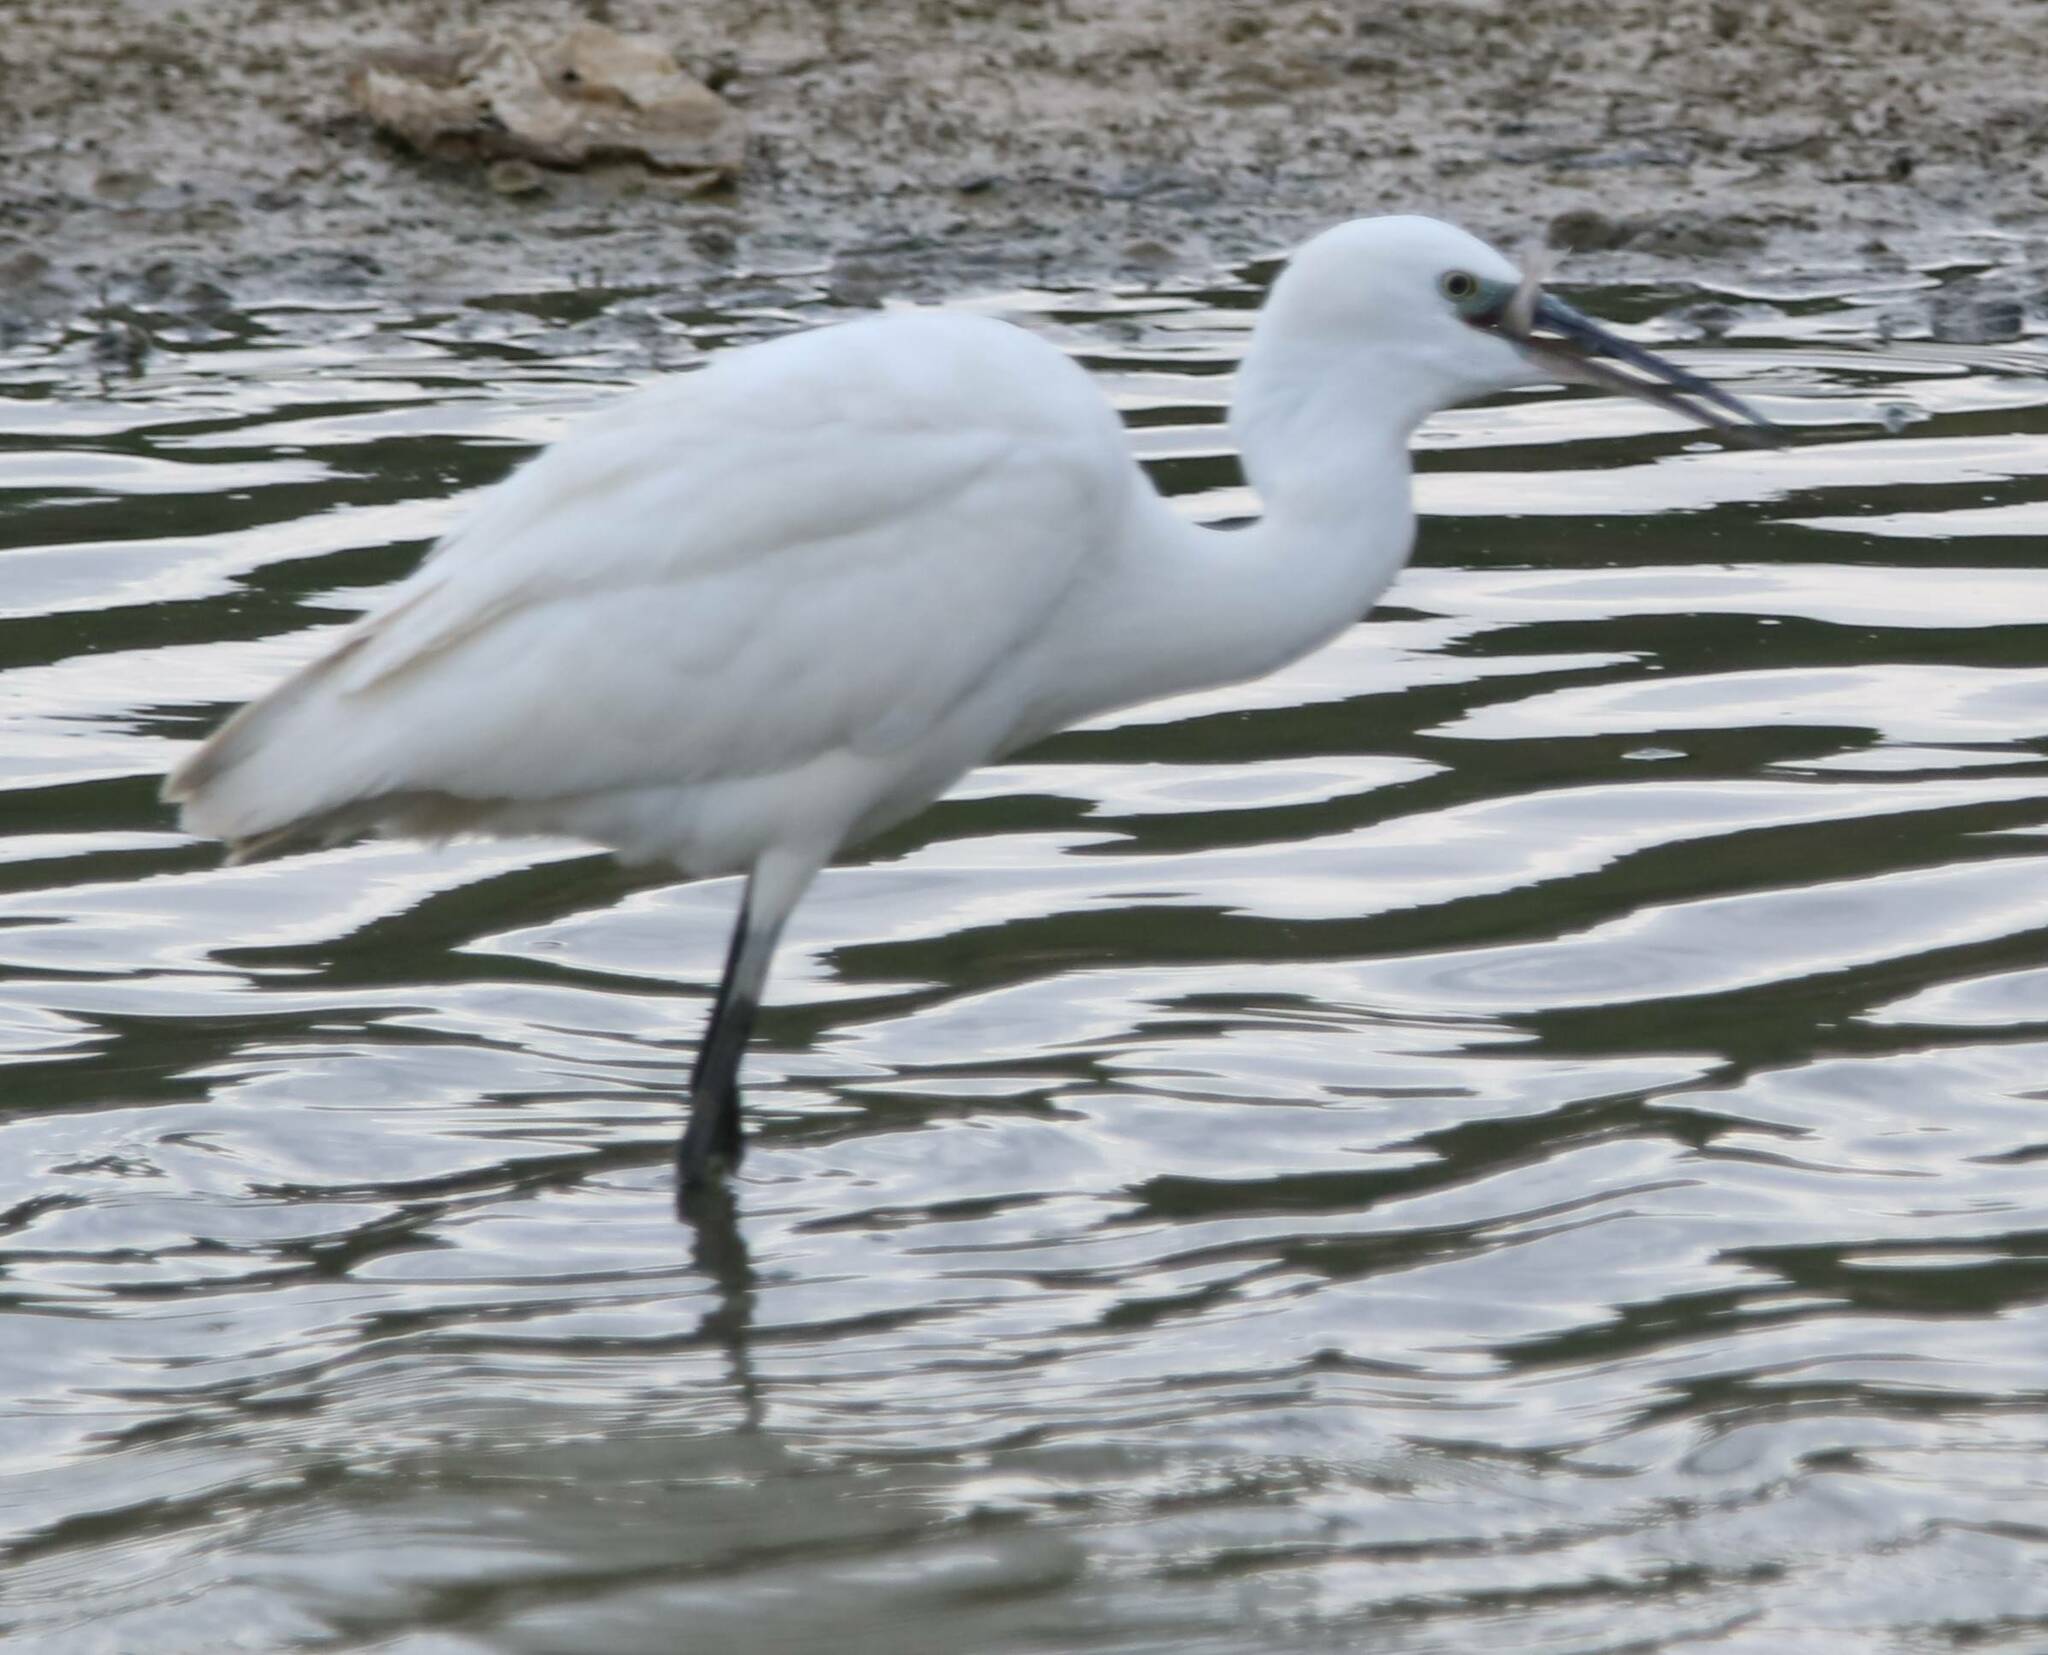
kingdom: Animalia
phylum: Chordata
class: Aves
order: Pelecaniformes
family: Ardeidae
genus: Egretta
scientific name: Egretta garzetta
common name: Little egret
